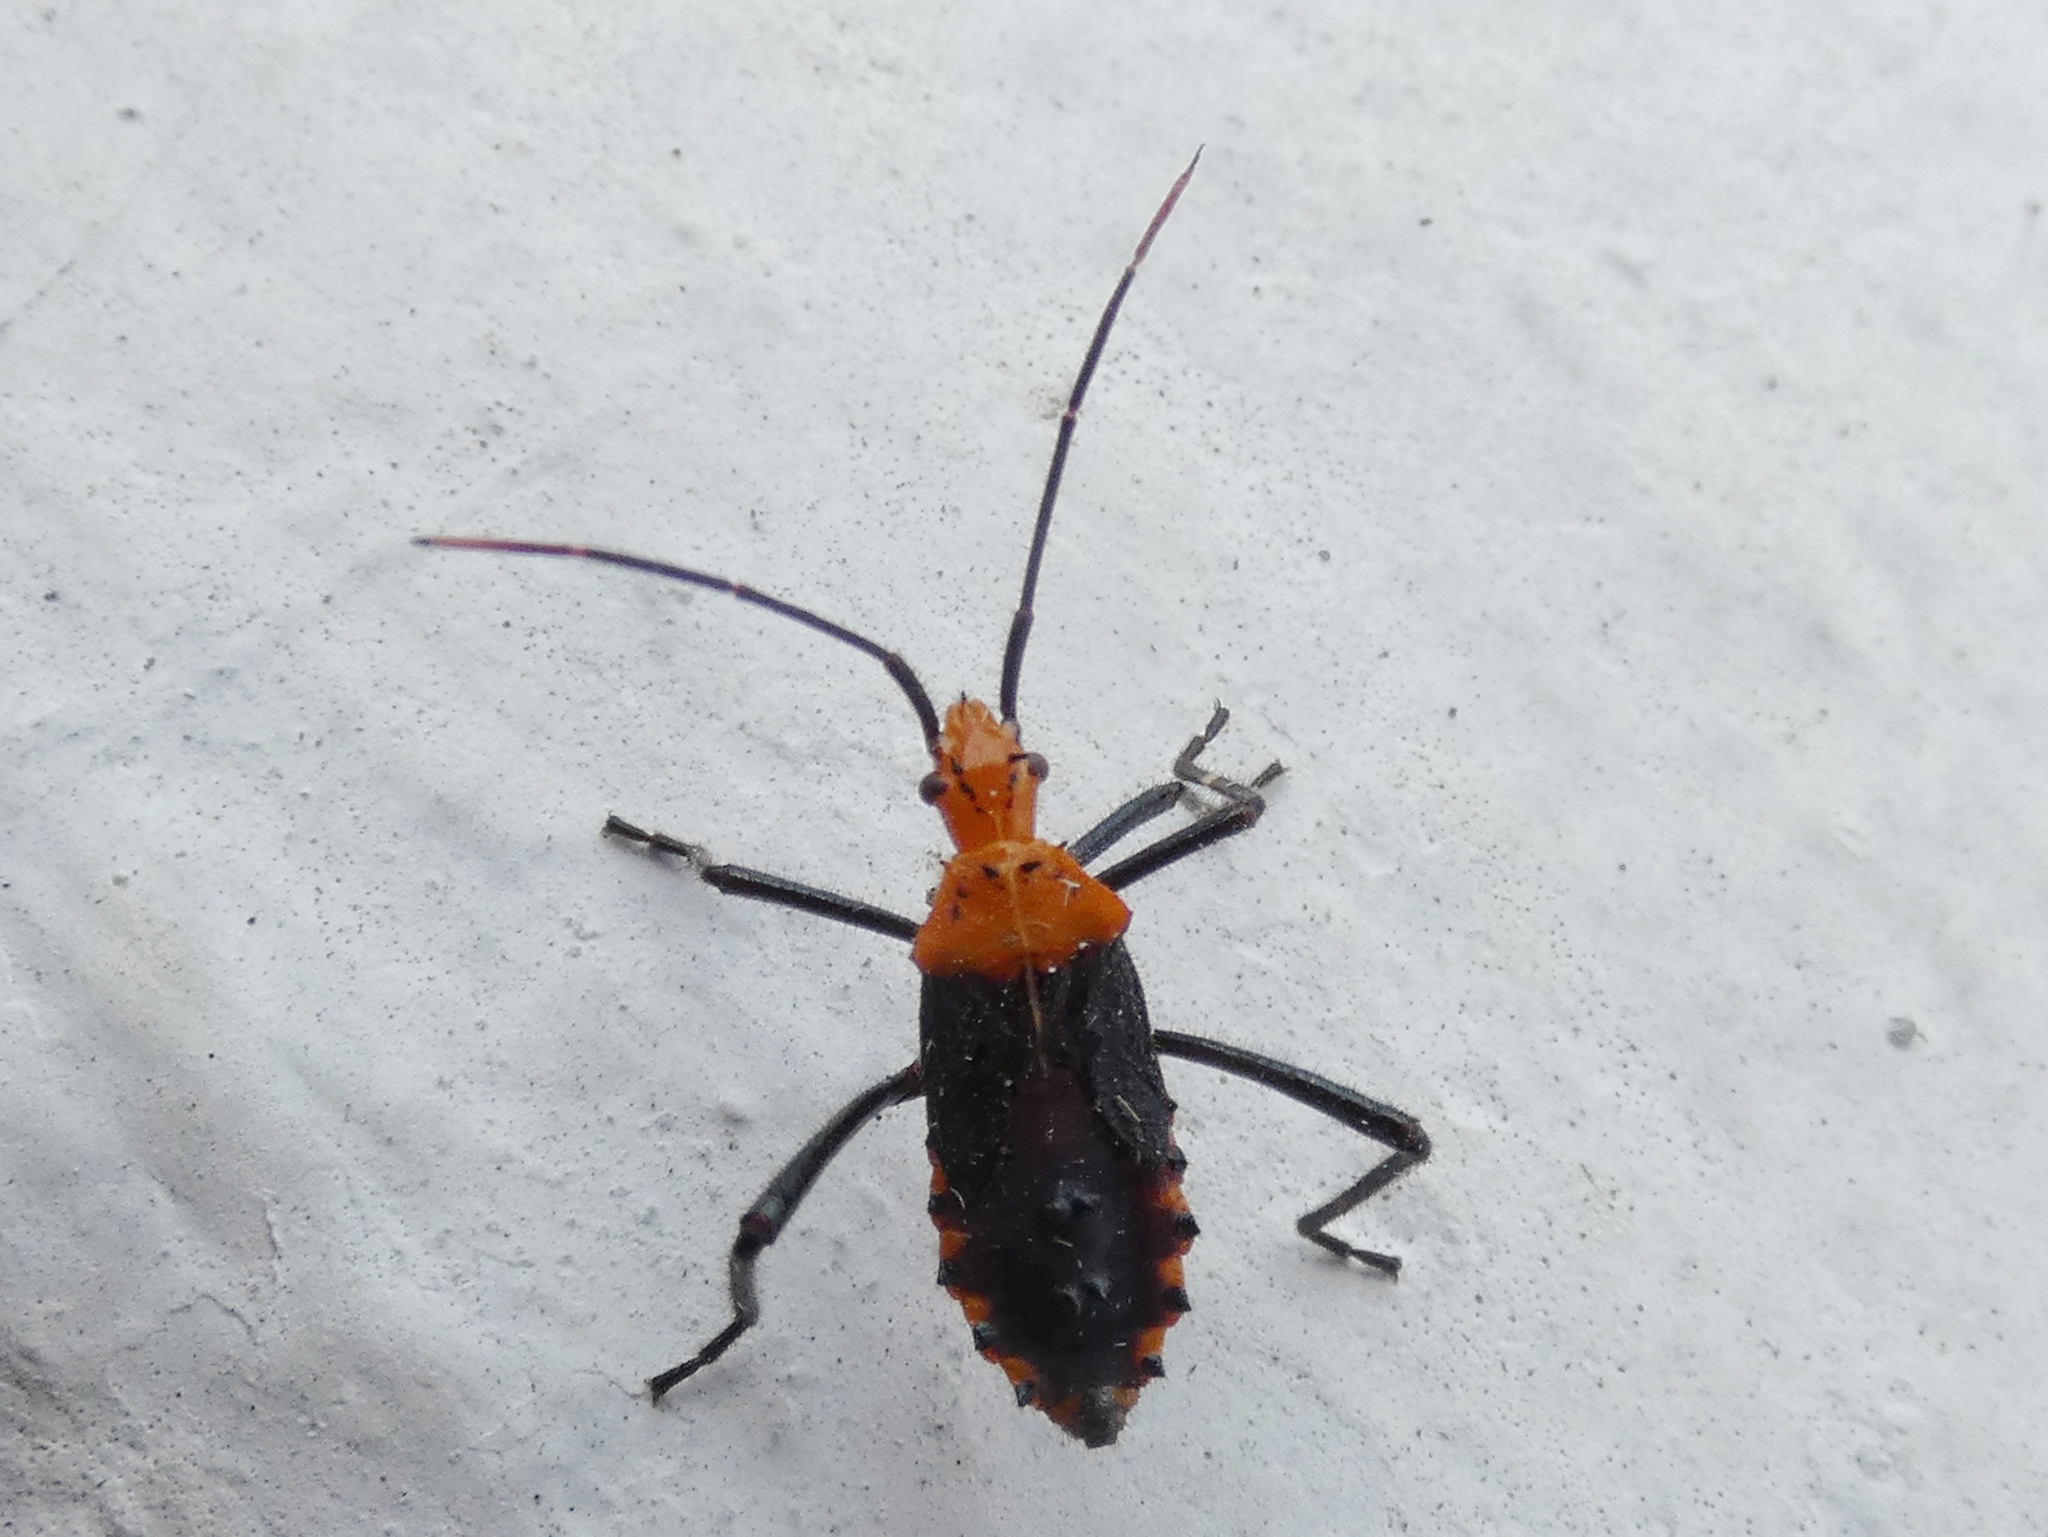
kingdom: Animalia
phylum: Arthropoda
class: Insecta
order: Hemiptera
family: Coreidae
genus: Phthiacnemia
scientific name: Phthiacnemia picta
